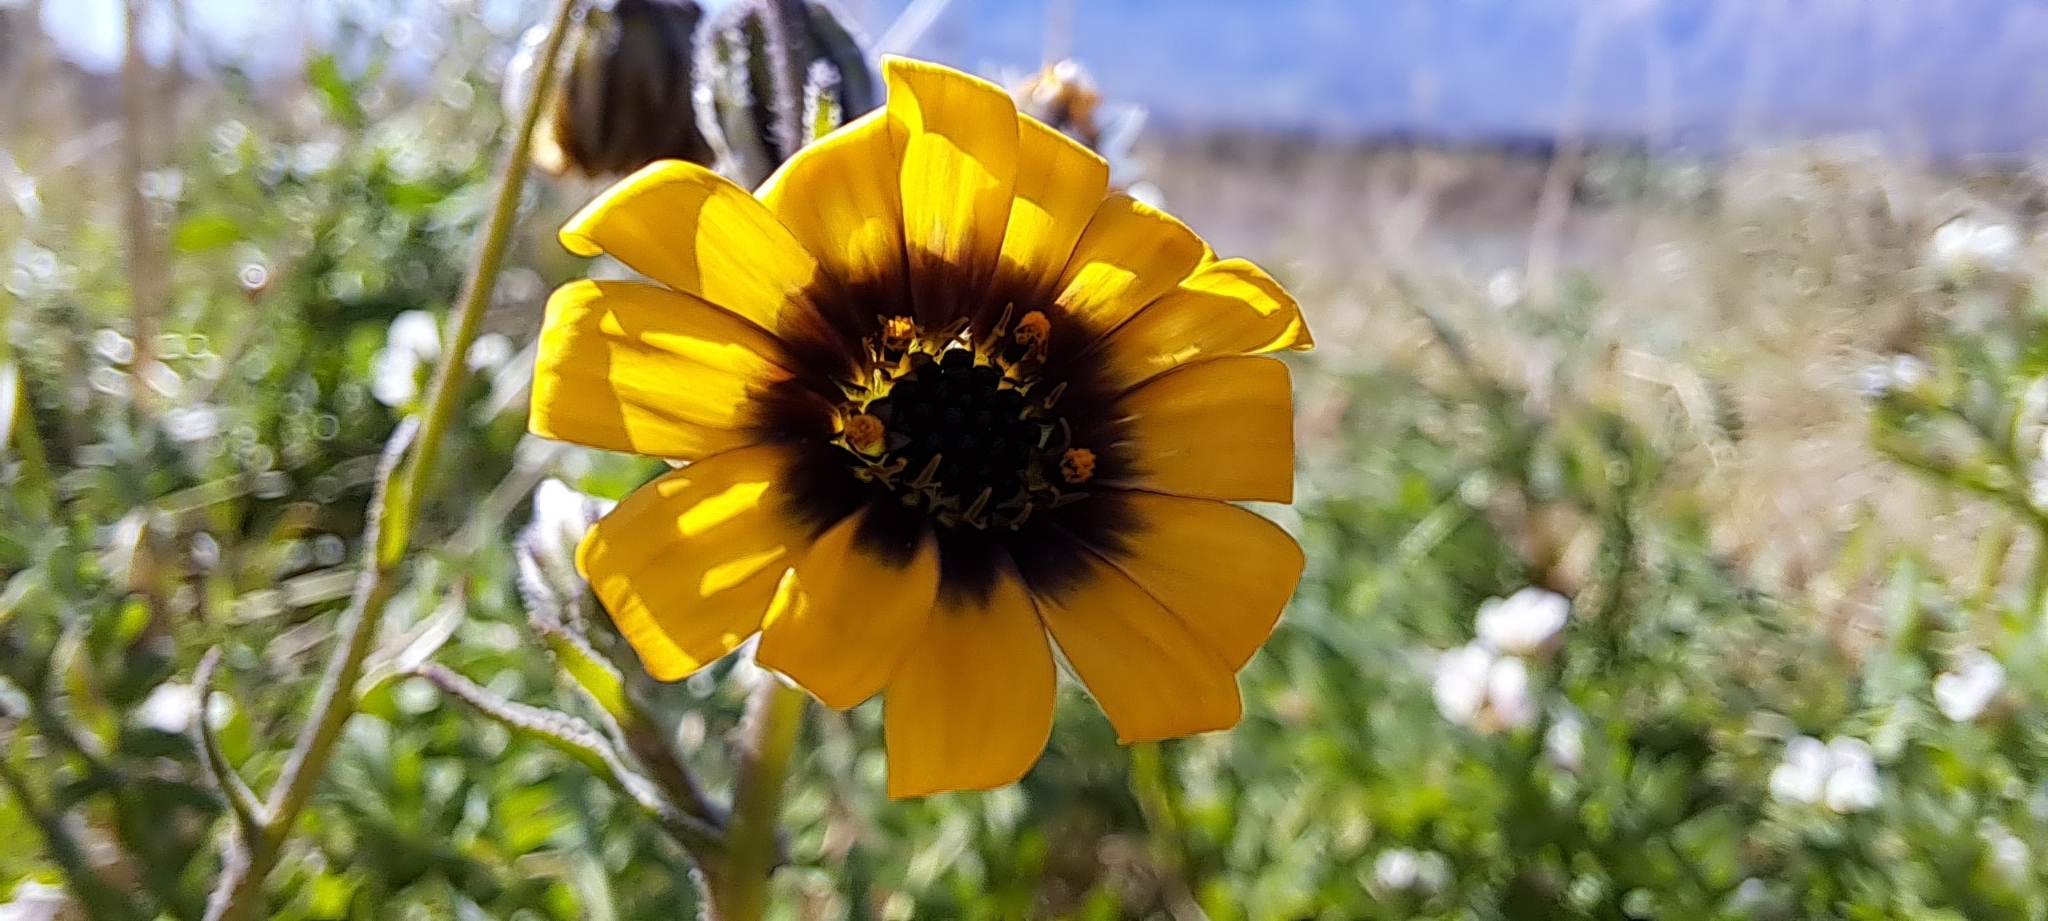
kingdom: Plantae
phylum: Tracheophyta
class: Magnoliopsida
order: Asterales
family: Asteraceae
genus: Osteospermum
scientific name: Osteospermum monstrosum
